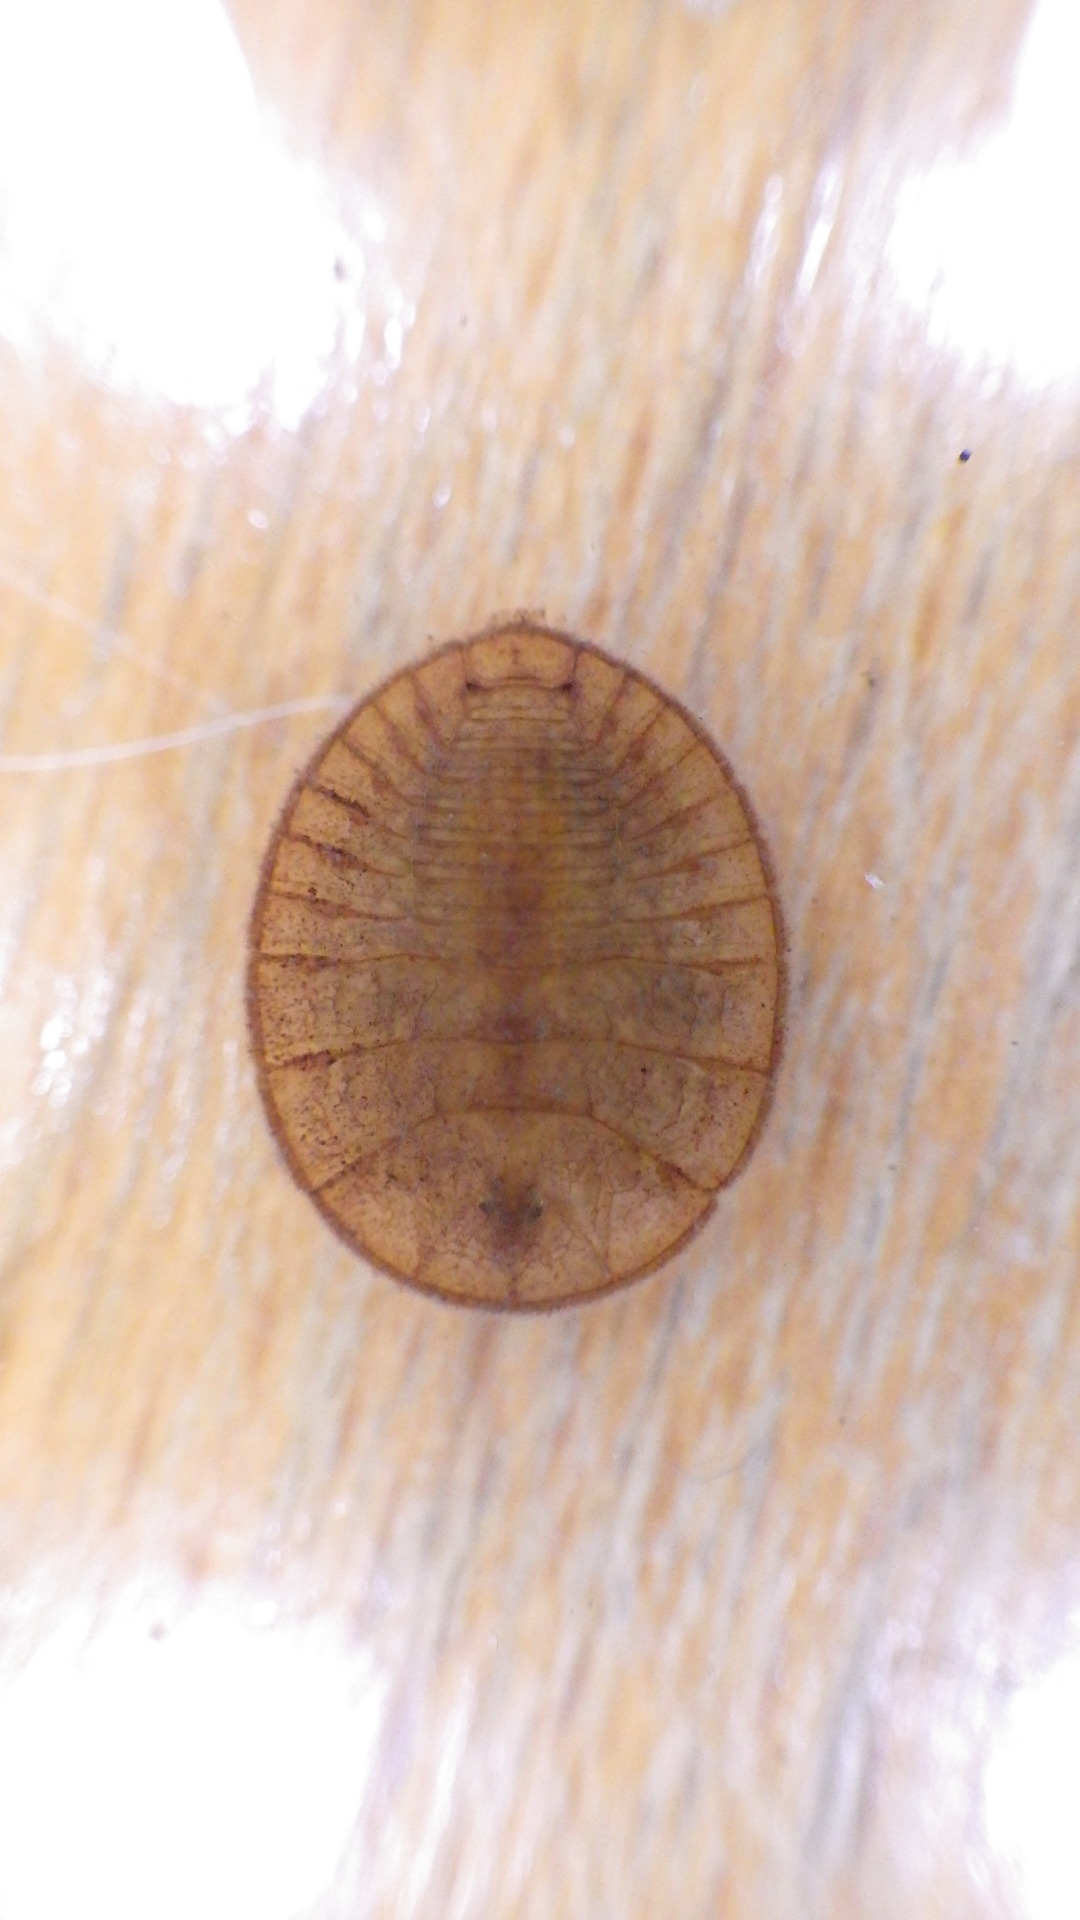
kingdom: Animalia
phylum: Arthropoda
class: Insecta
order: Coleoptera
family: Psephenidae
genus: Psephenus
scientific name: Psephenus herricki
